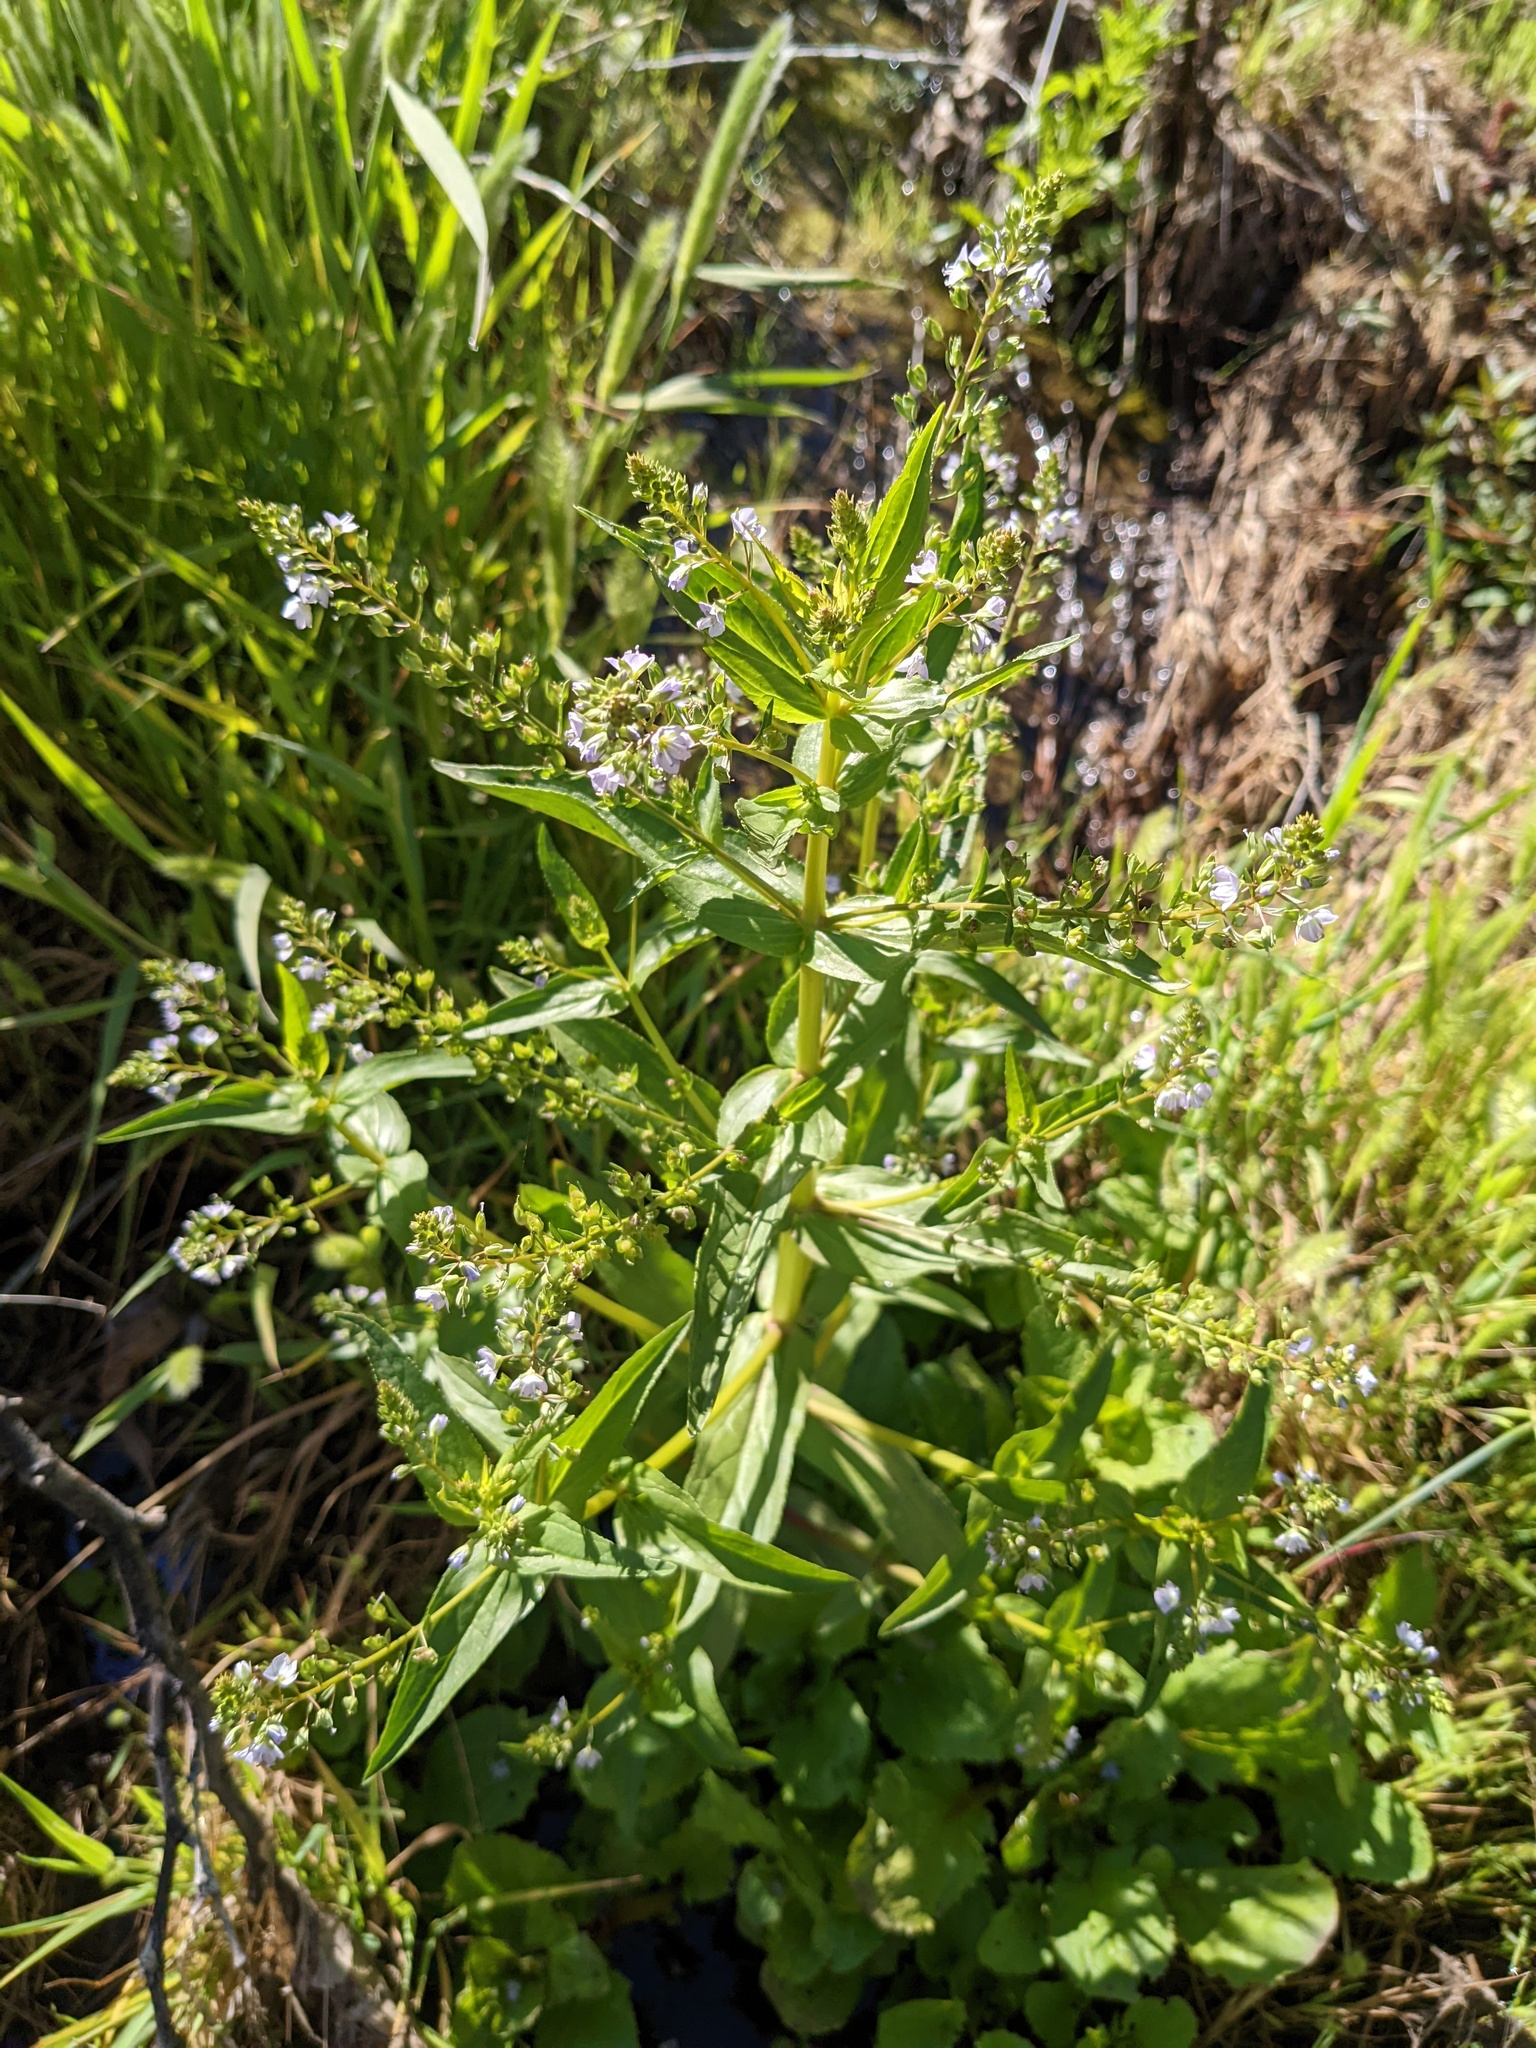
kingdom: Plantae
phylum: Tracheophyta
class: Magnoliopsida
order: Lamiales
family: Plantaginaceae
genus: Veronica
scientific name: Veronica anagallis-aquatica
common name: Water speedwell
